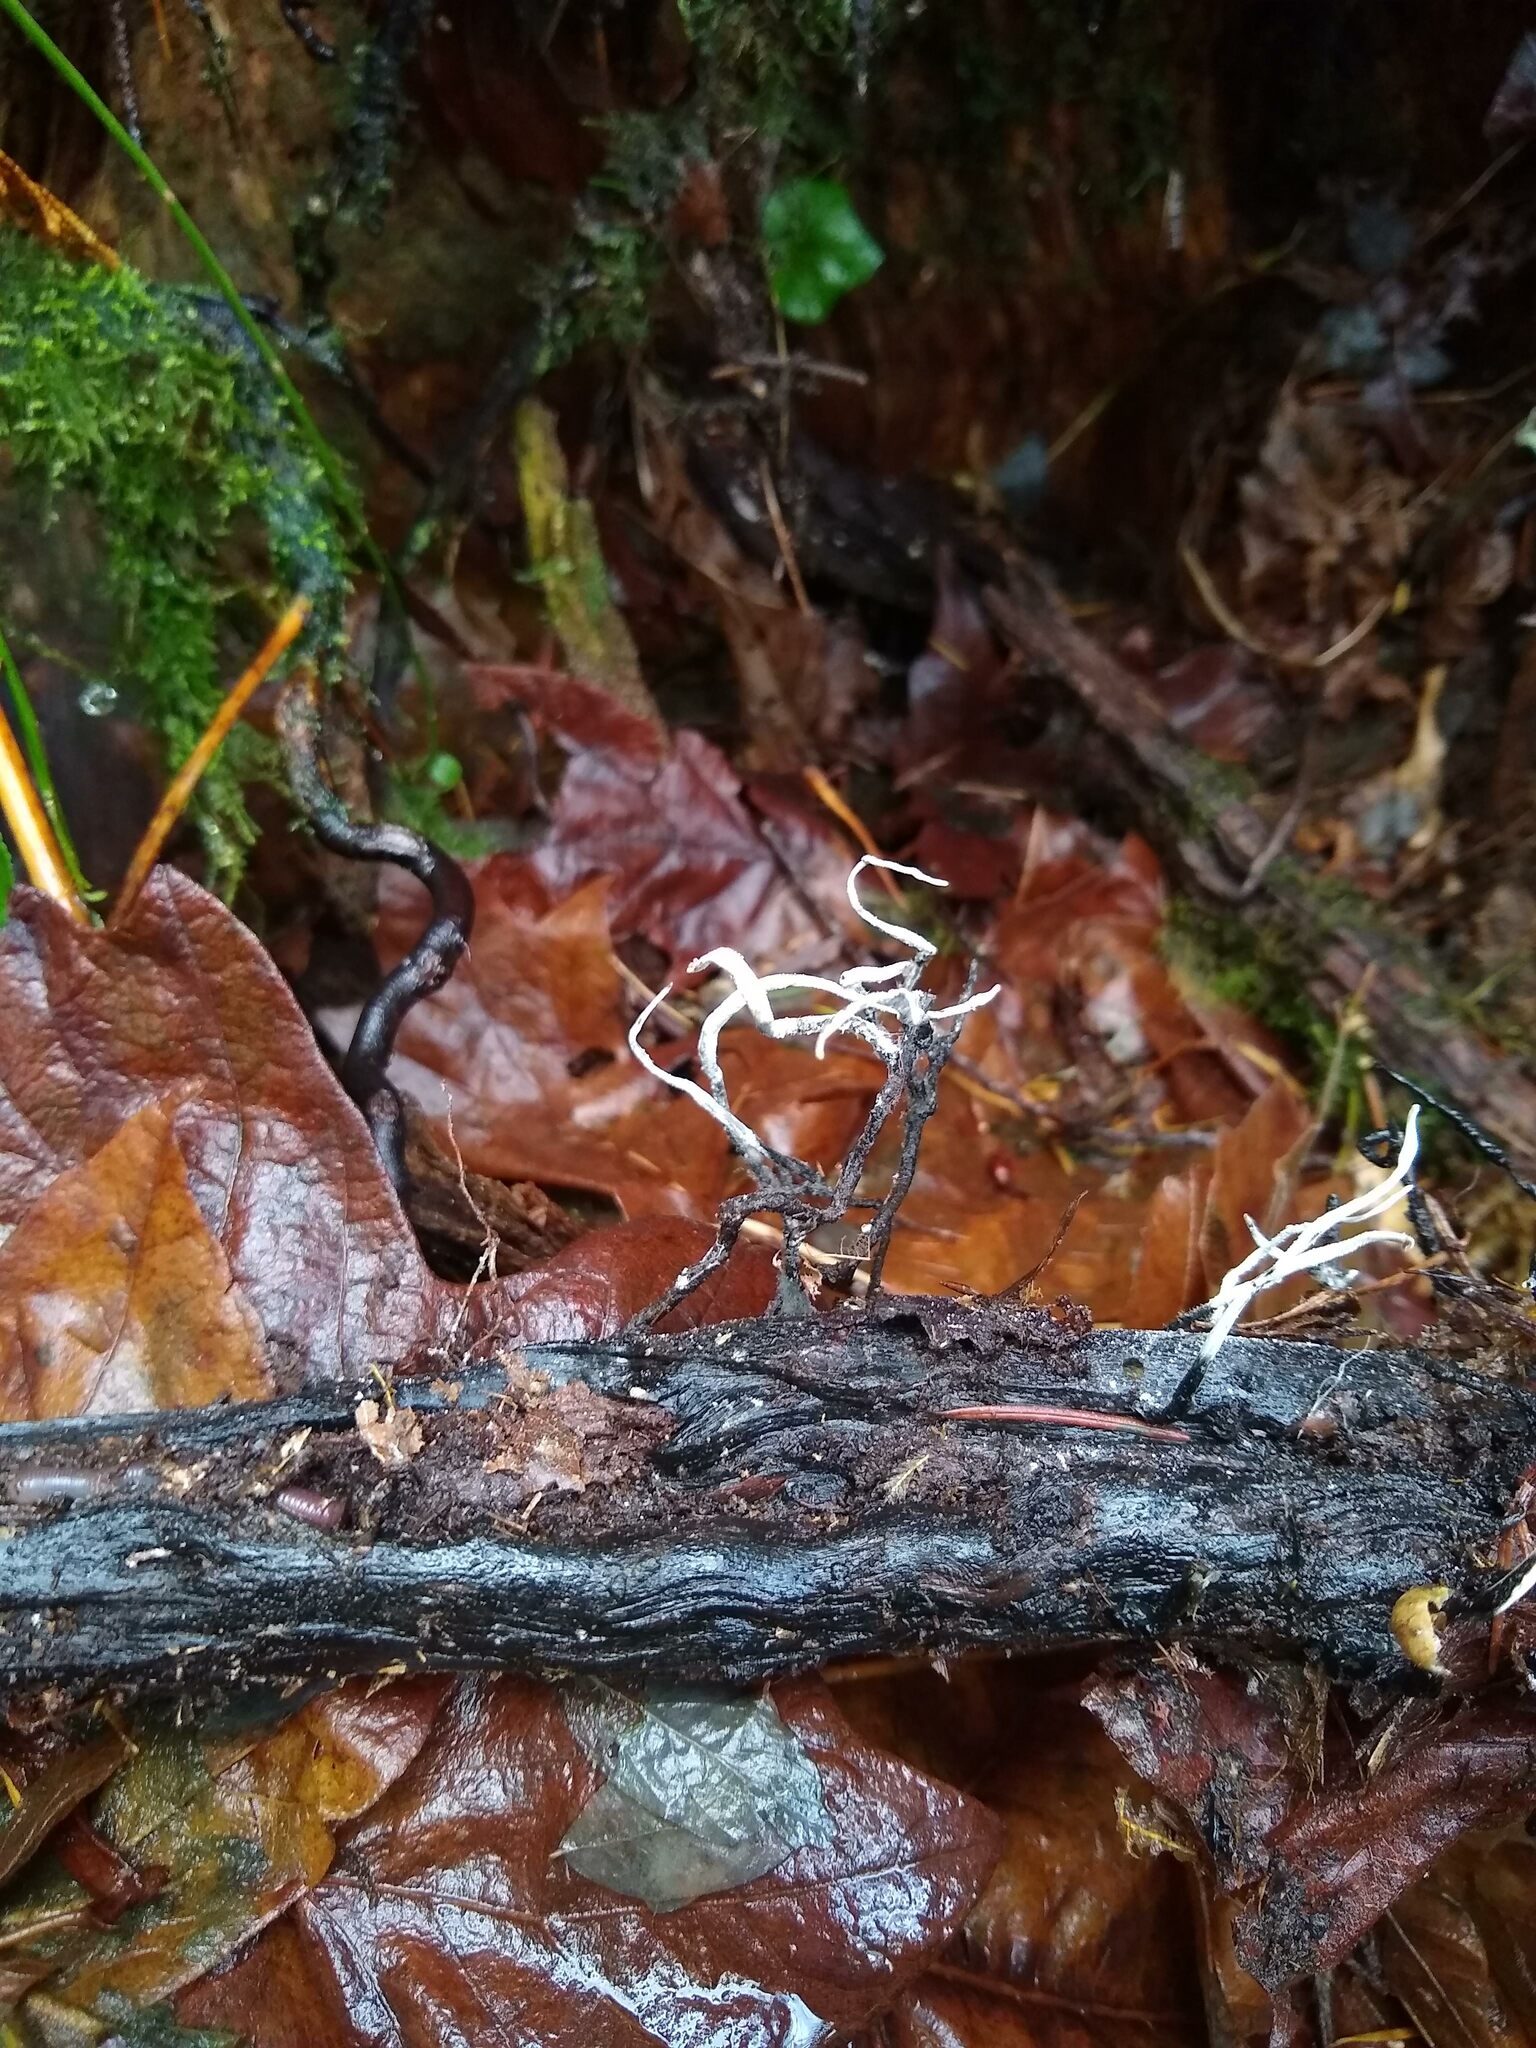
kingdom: Fungi
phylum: Ascomycota
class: Sordariomycetes
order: Xylariales
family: Xylariaceae
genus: Xylaria
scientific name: Xylaria hypoxylon
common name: Candle-snuff fungus
